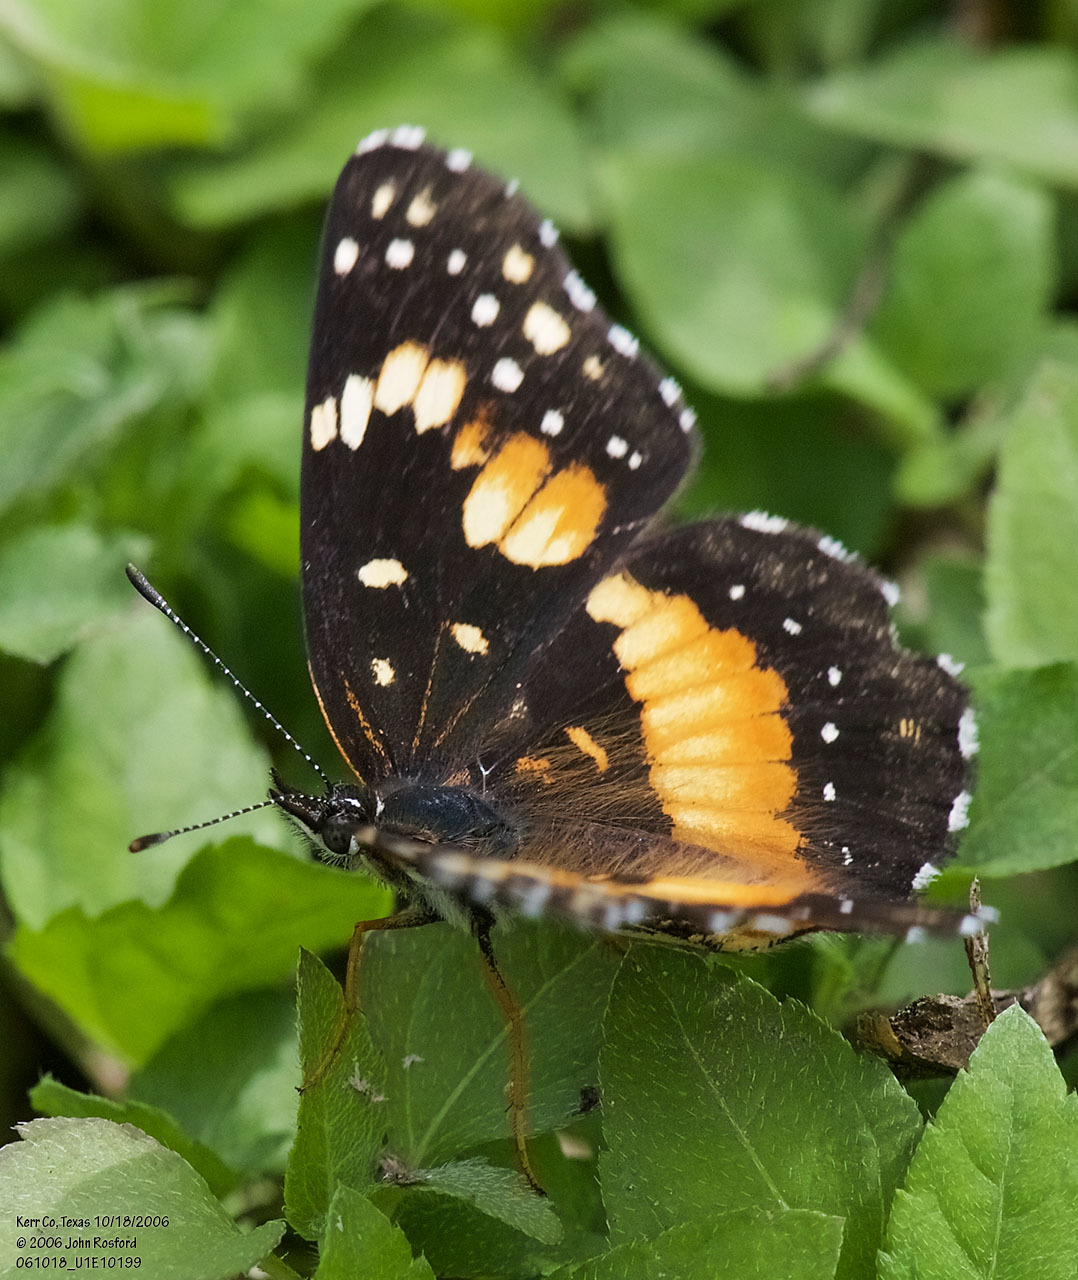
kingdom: Animalia
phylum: Arthropoda
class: Insecta
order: Lepidoptera
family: Nymphalidae
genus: Chlosyne
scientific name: Chlosyne lacinia
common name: Bordered patch
